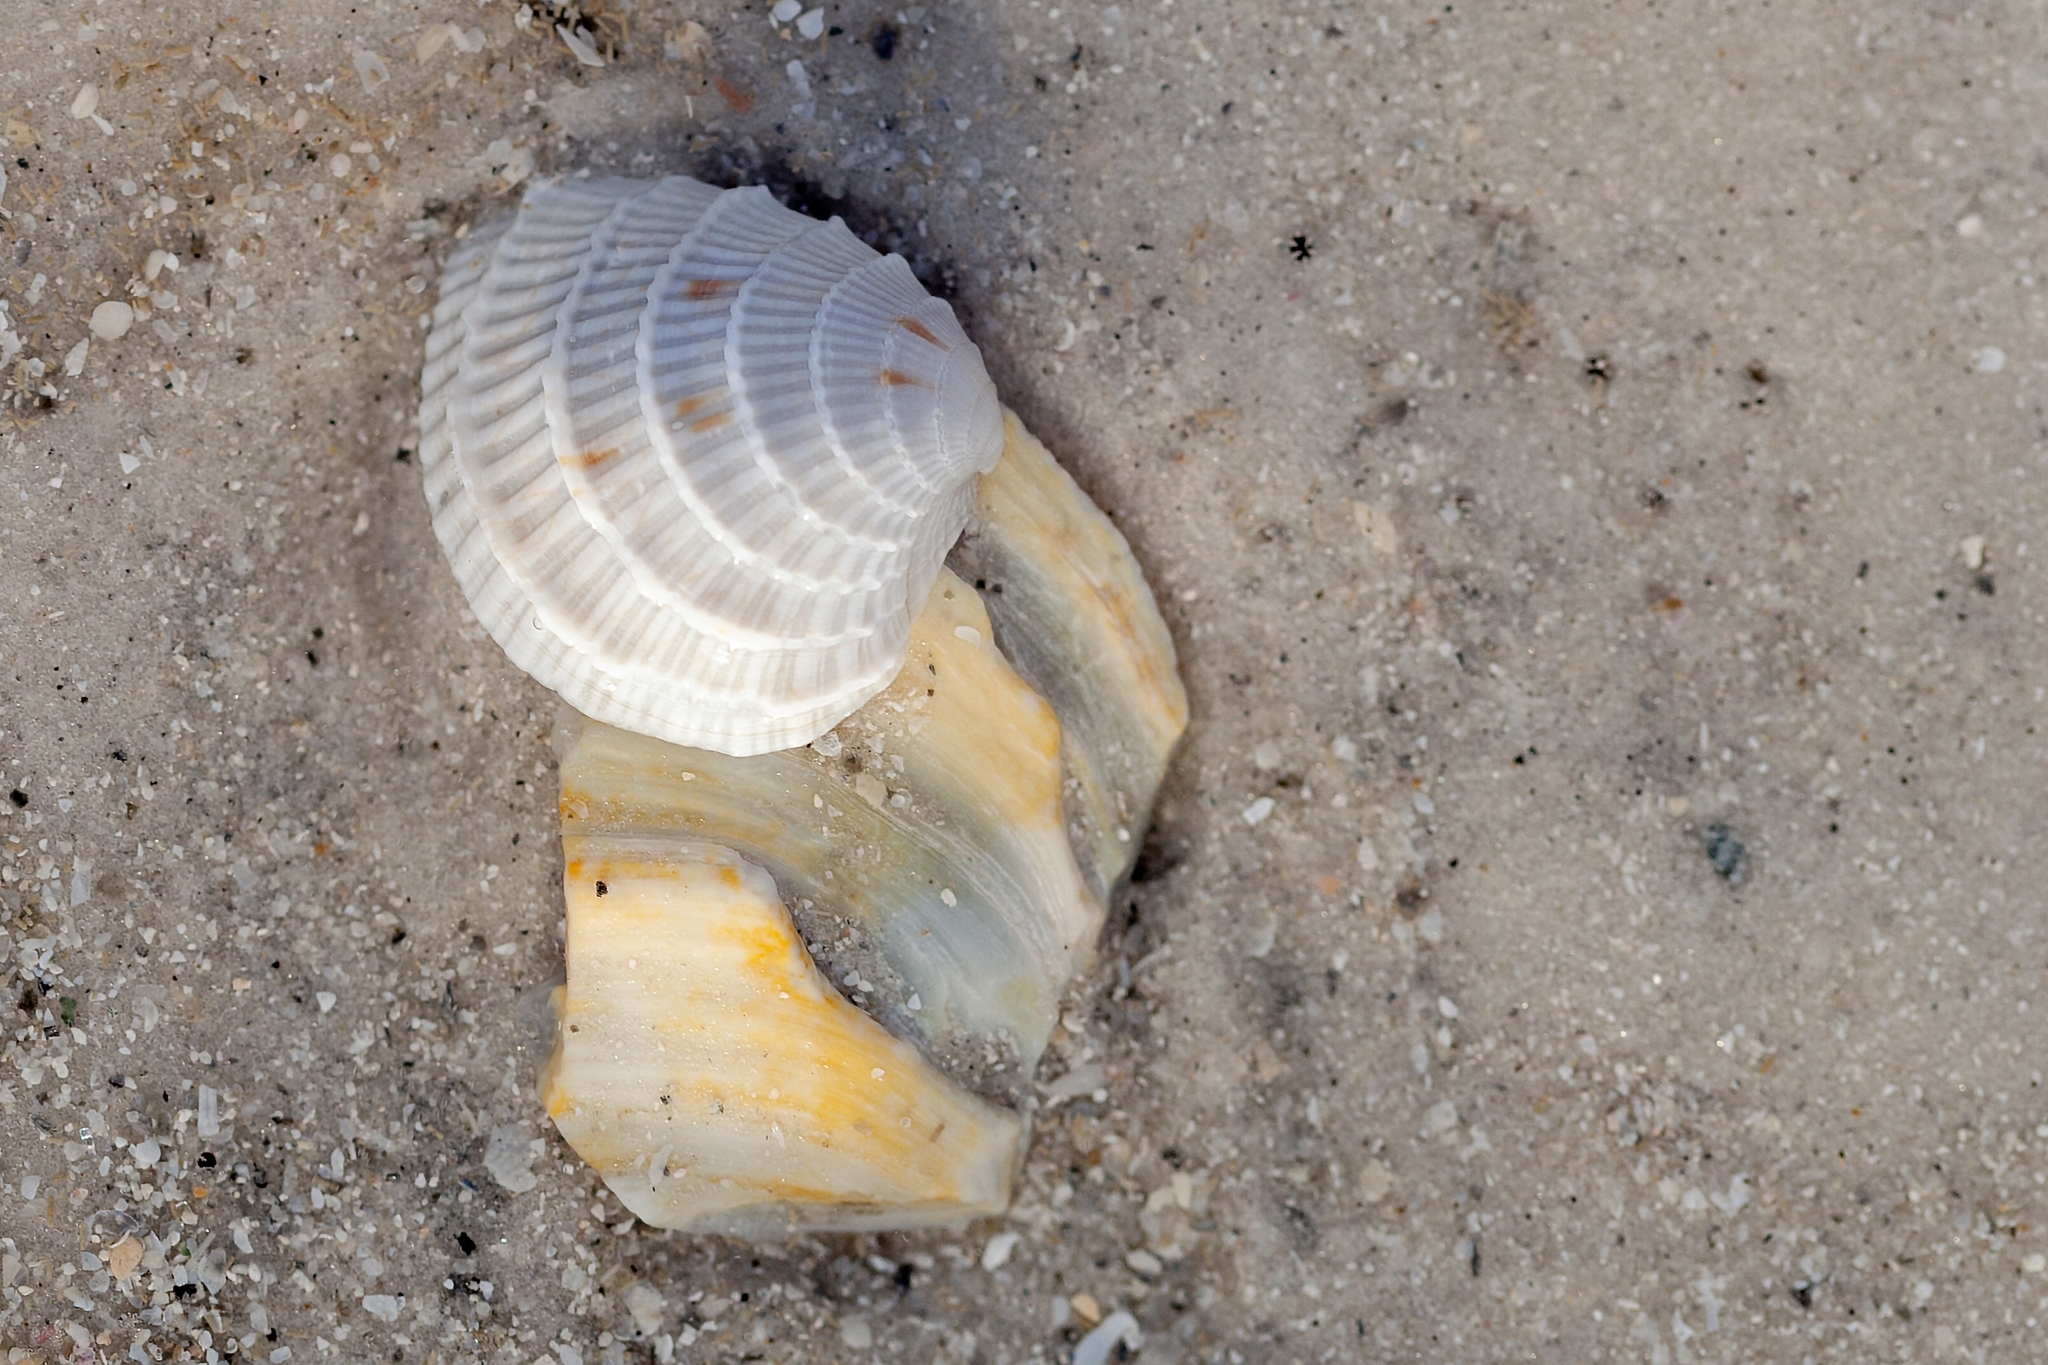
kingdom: Animalia
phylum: Mollusca
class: Bivalvia
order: Venerida
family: Veneridae
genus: Chione
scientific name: Chione elevata
